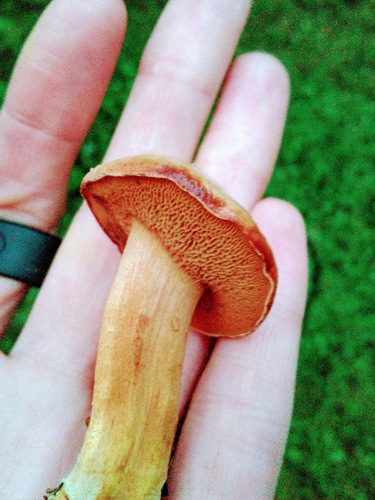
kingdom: Fungi
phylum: Basidiomycota
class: Agaricomycetes
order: Boletales
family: Boletaceae
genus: Chalciporus
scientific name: Chalciporus piperatus
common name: Peppery bolete
